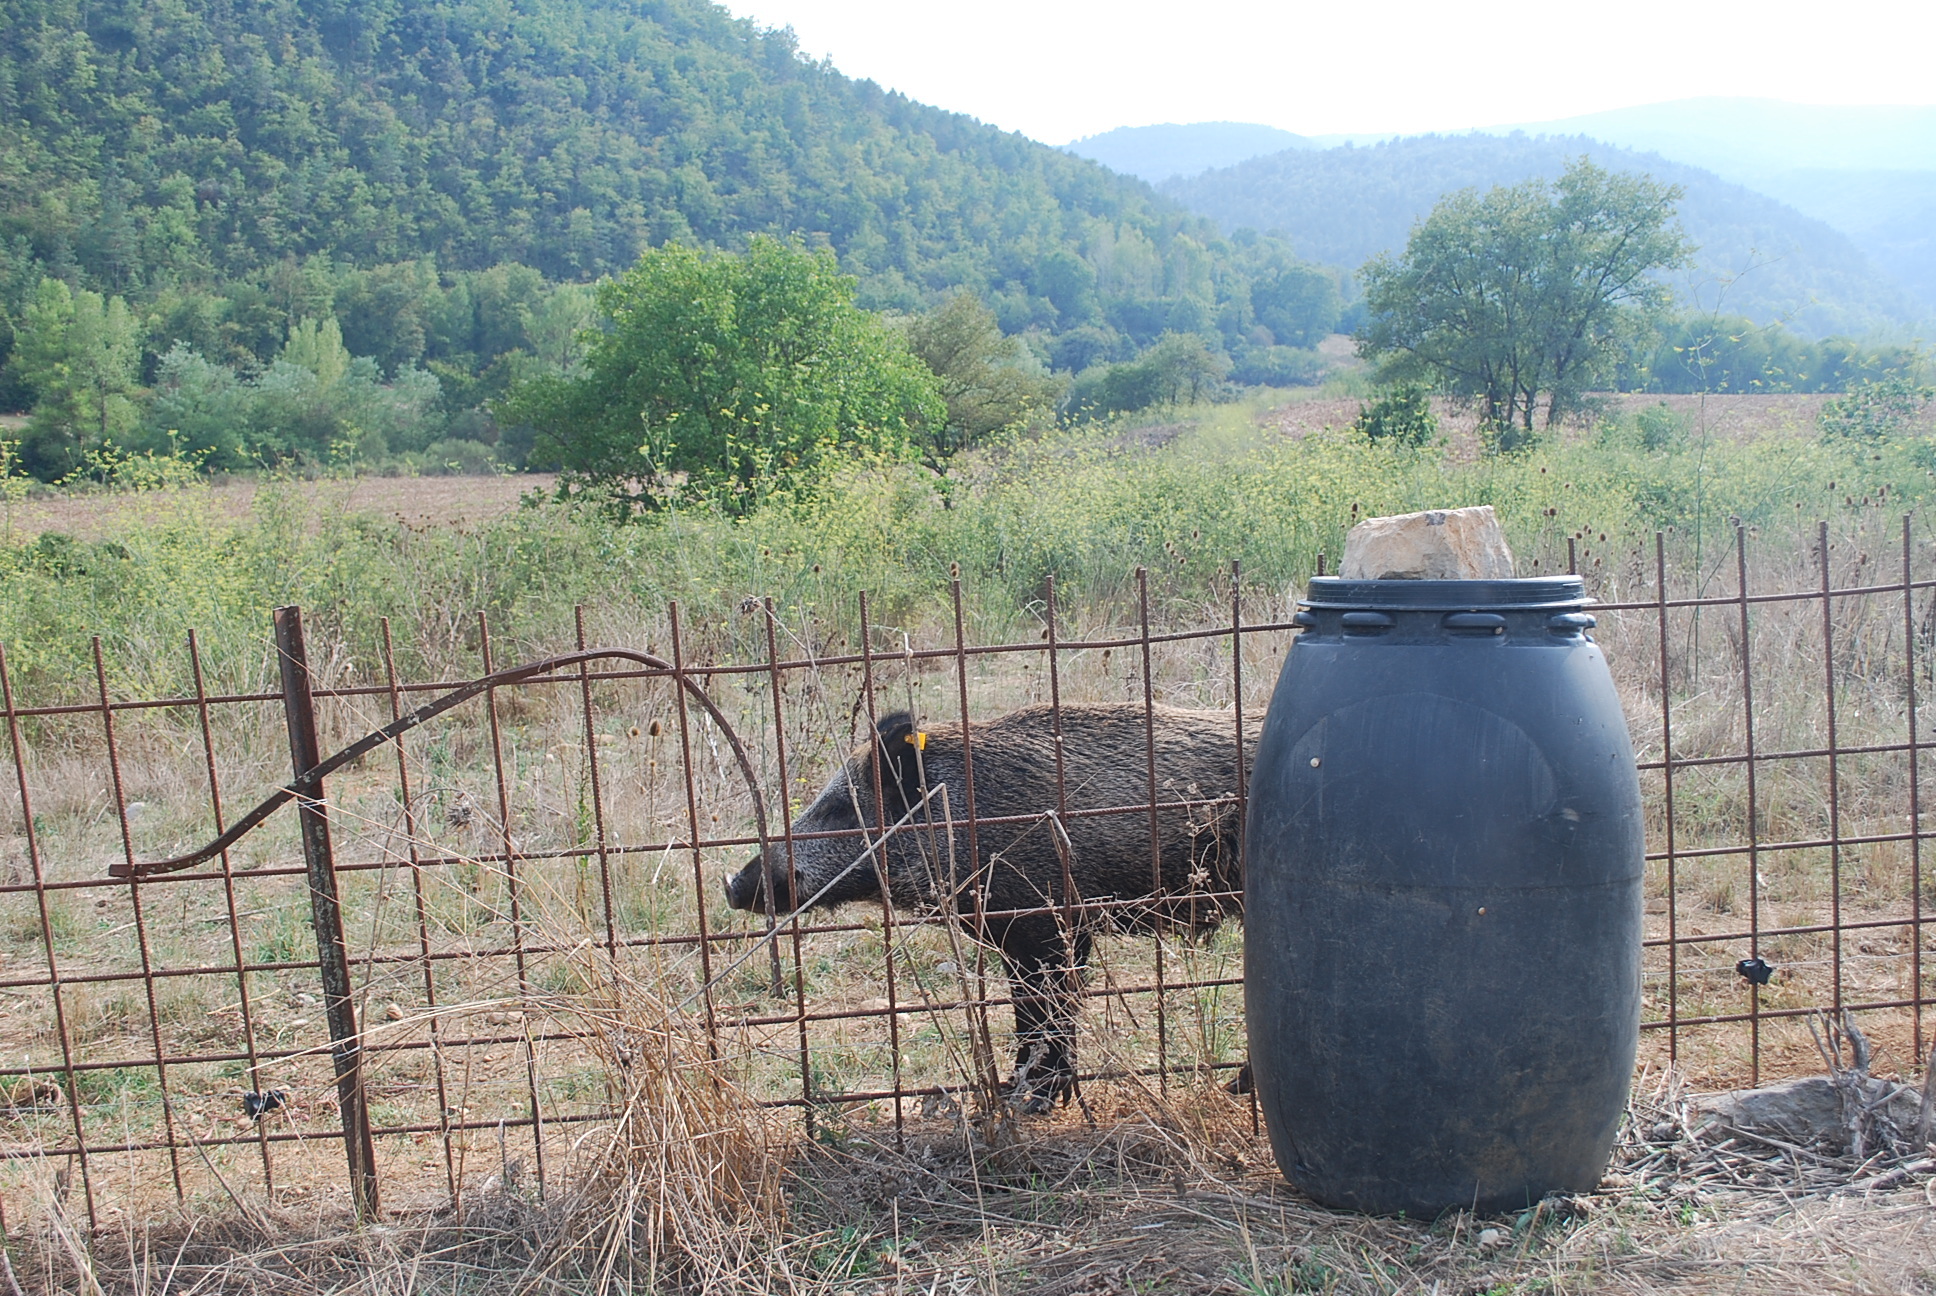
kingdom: Animalia
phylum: Chordata
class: Mammalia
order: Artiodactyla
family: Suidae
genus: Sus
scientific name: Sus scrofa
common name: Wild boar
